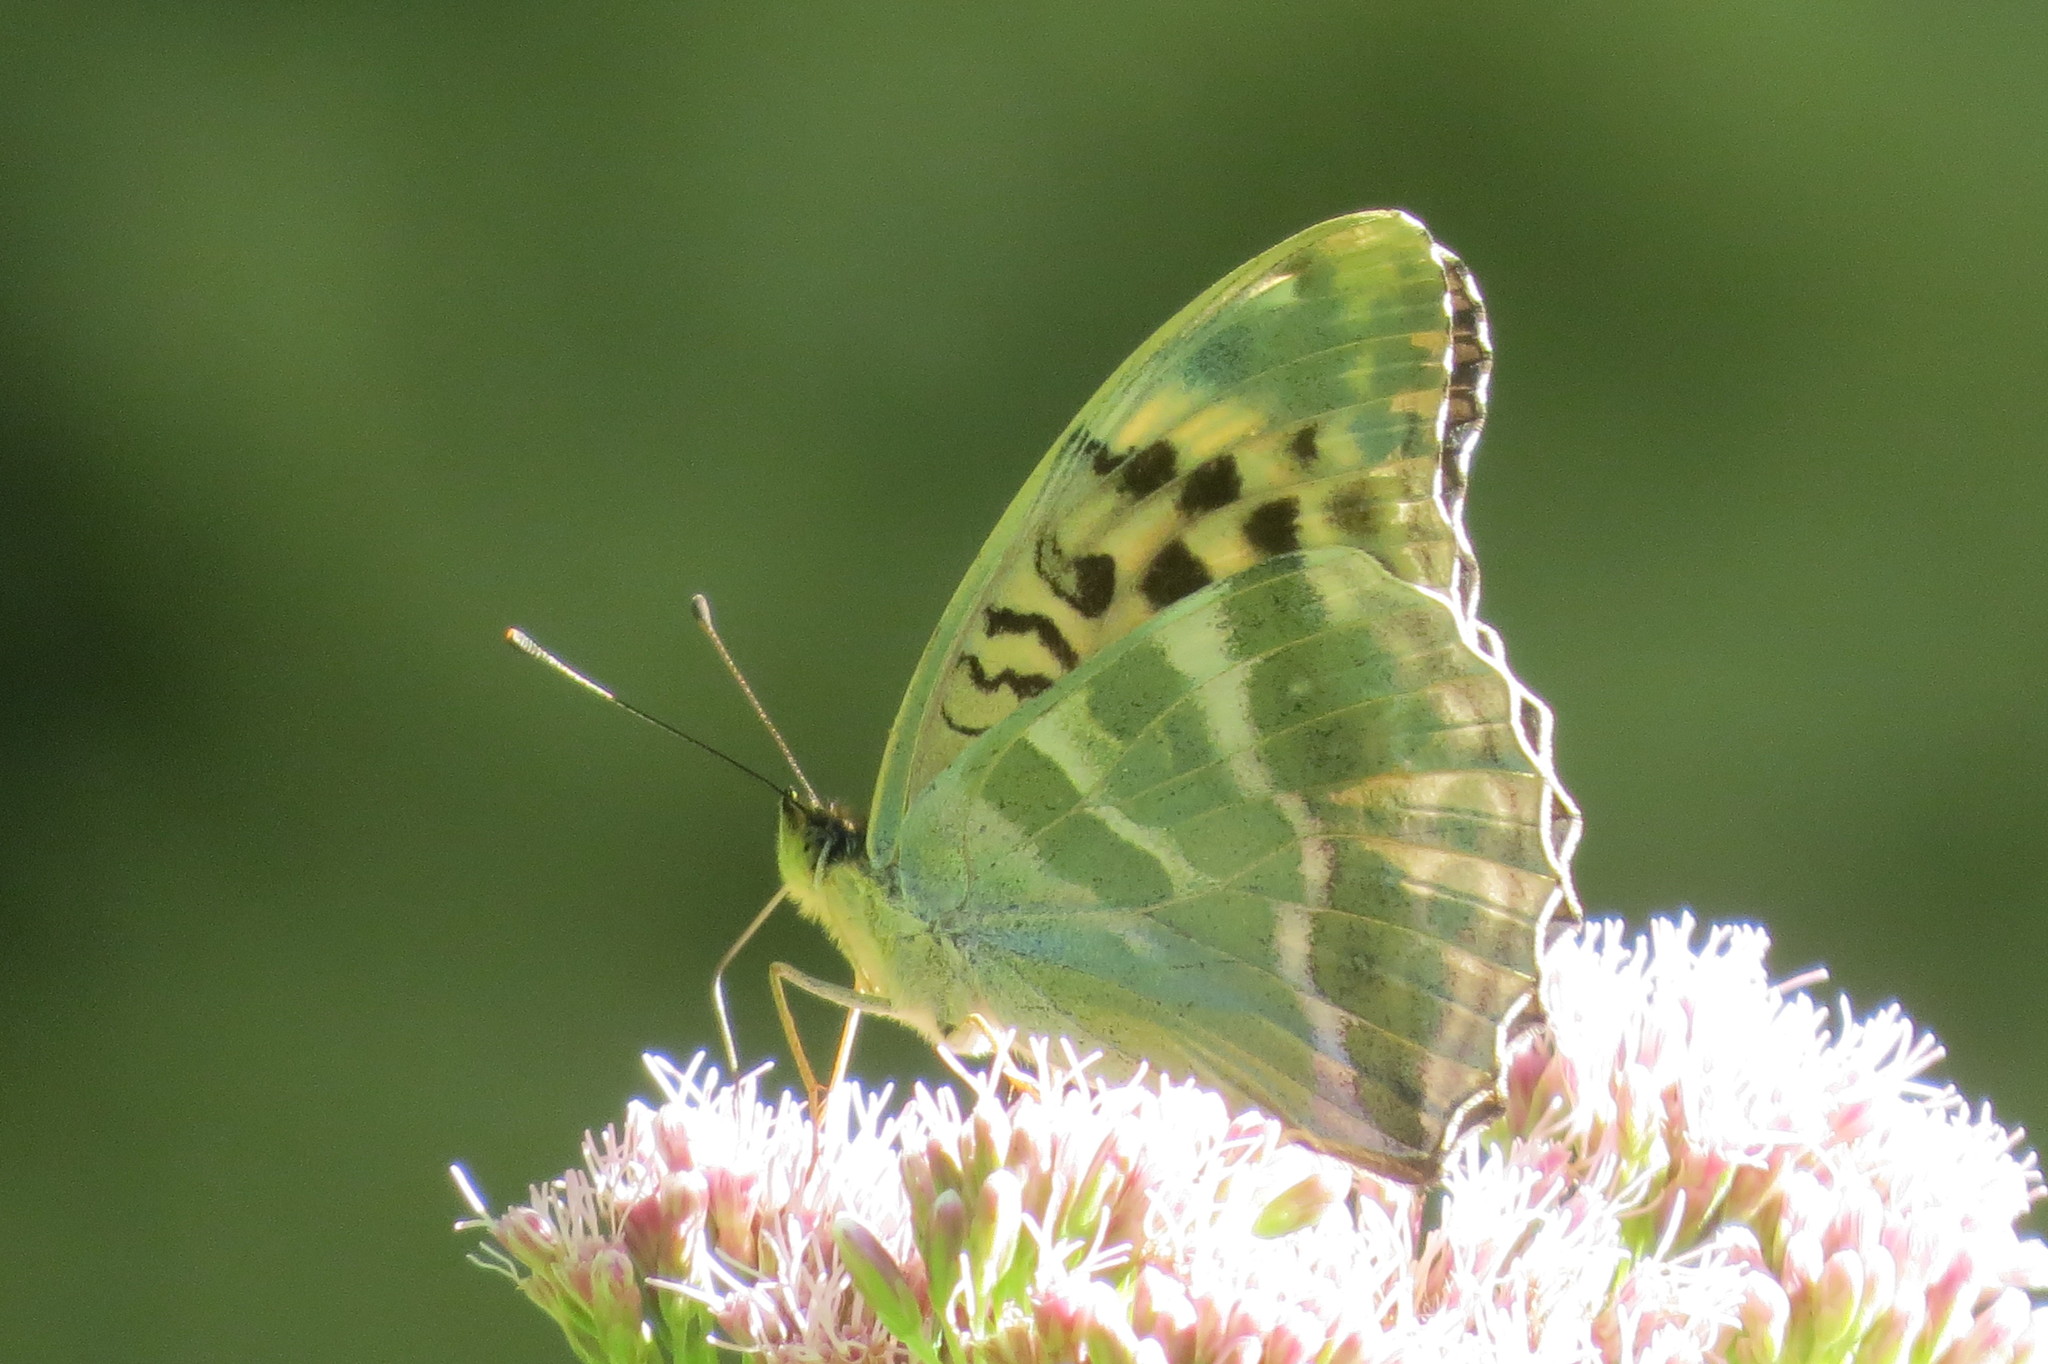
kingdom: Animalia
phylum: Arthropoda
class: Insecta
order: Lepidoptera
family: Nymphalidae
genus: Argynnis
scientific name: Argynnis paphia
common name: Silver-washed fritillary
